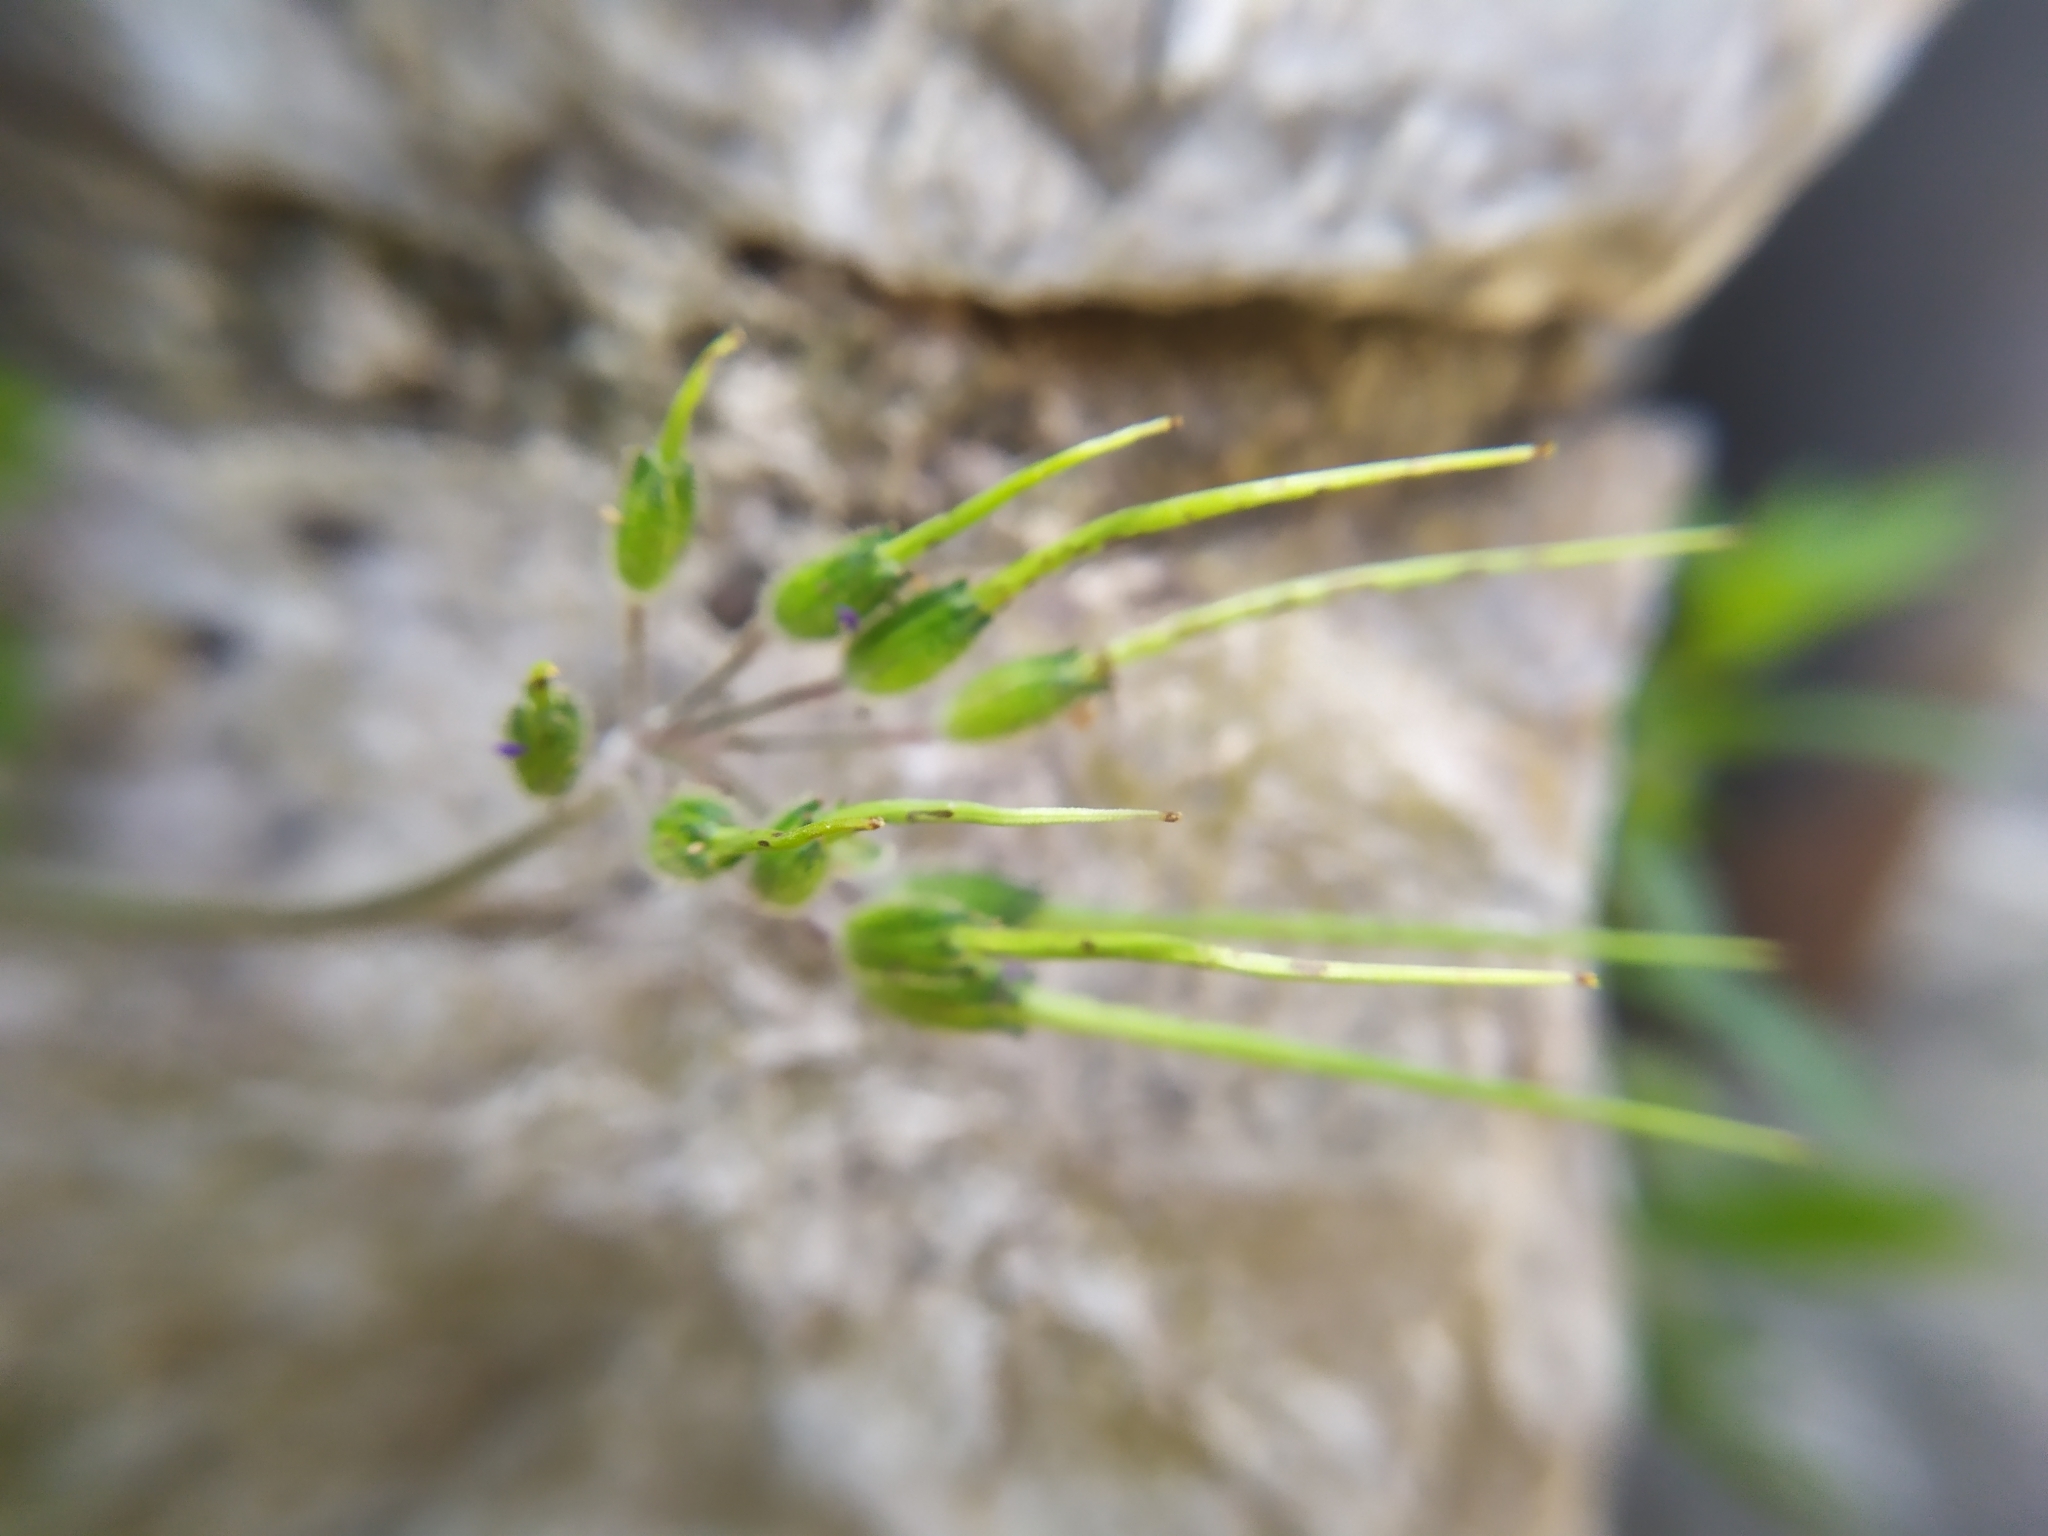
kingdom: Plantae
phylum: Tracheophyta
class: Magnoliopsida
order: Geraniales
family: Geraniaceae
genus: Erodium
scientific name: Erodium moschatum
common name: Musk stork's-bill
